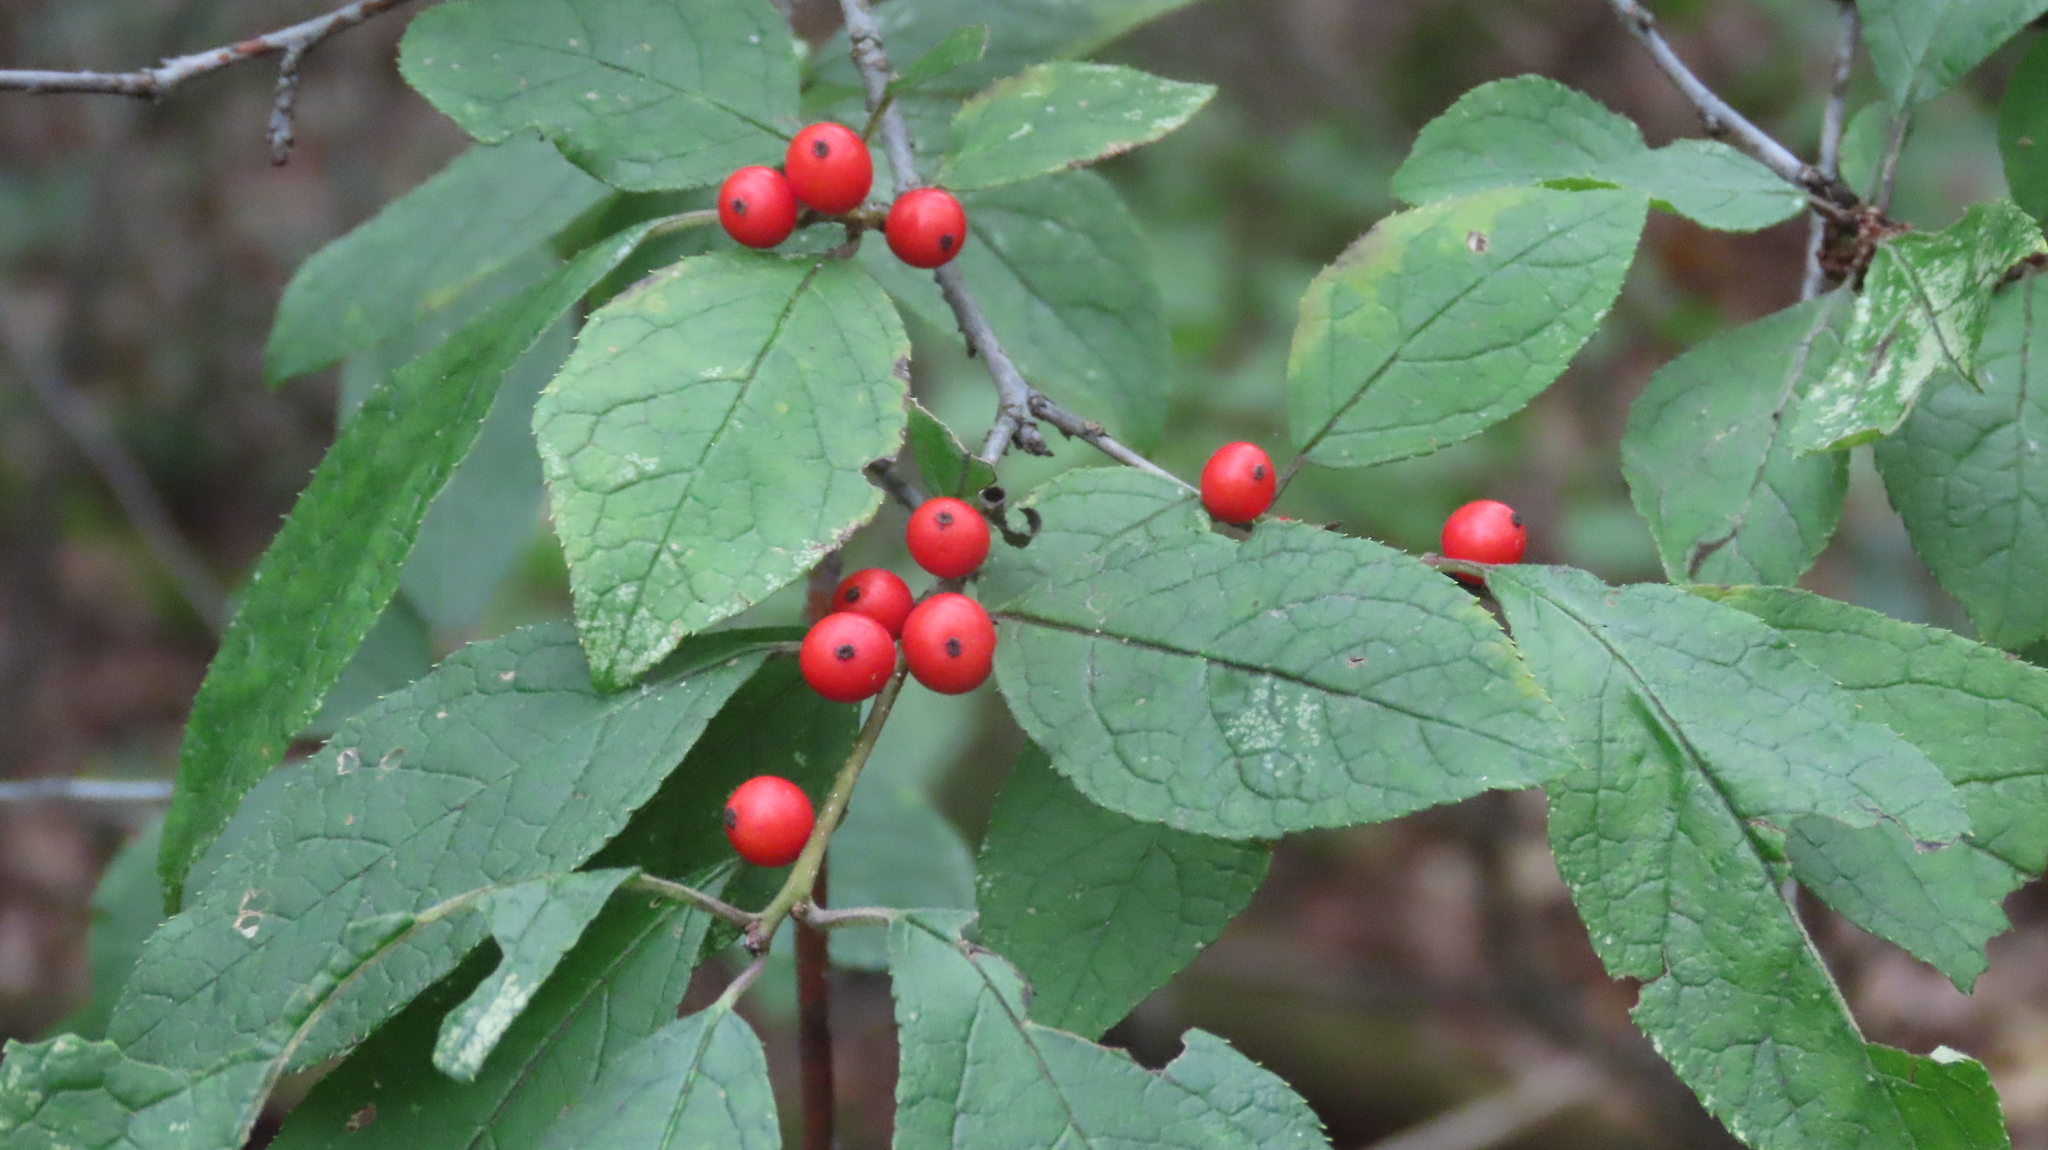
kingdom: Plantae
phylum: Tracheophyta
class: Magnoliopsida
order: Aquifoliales
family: Aquifoliaceae
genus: Ilex
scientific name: Ilex verticillata
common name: Virginia winterberry
